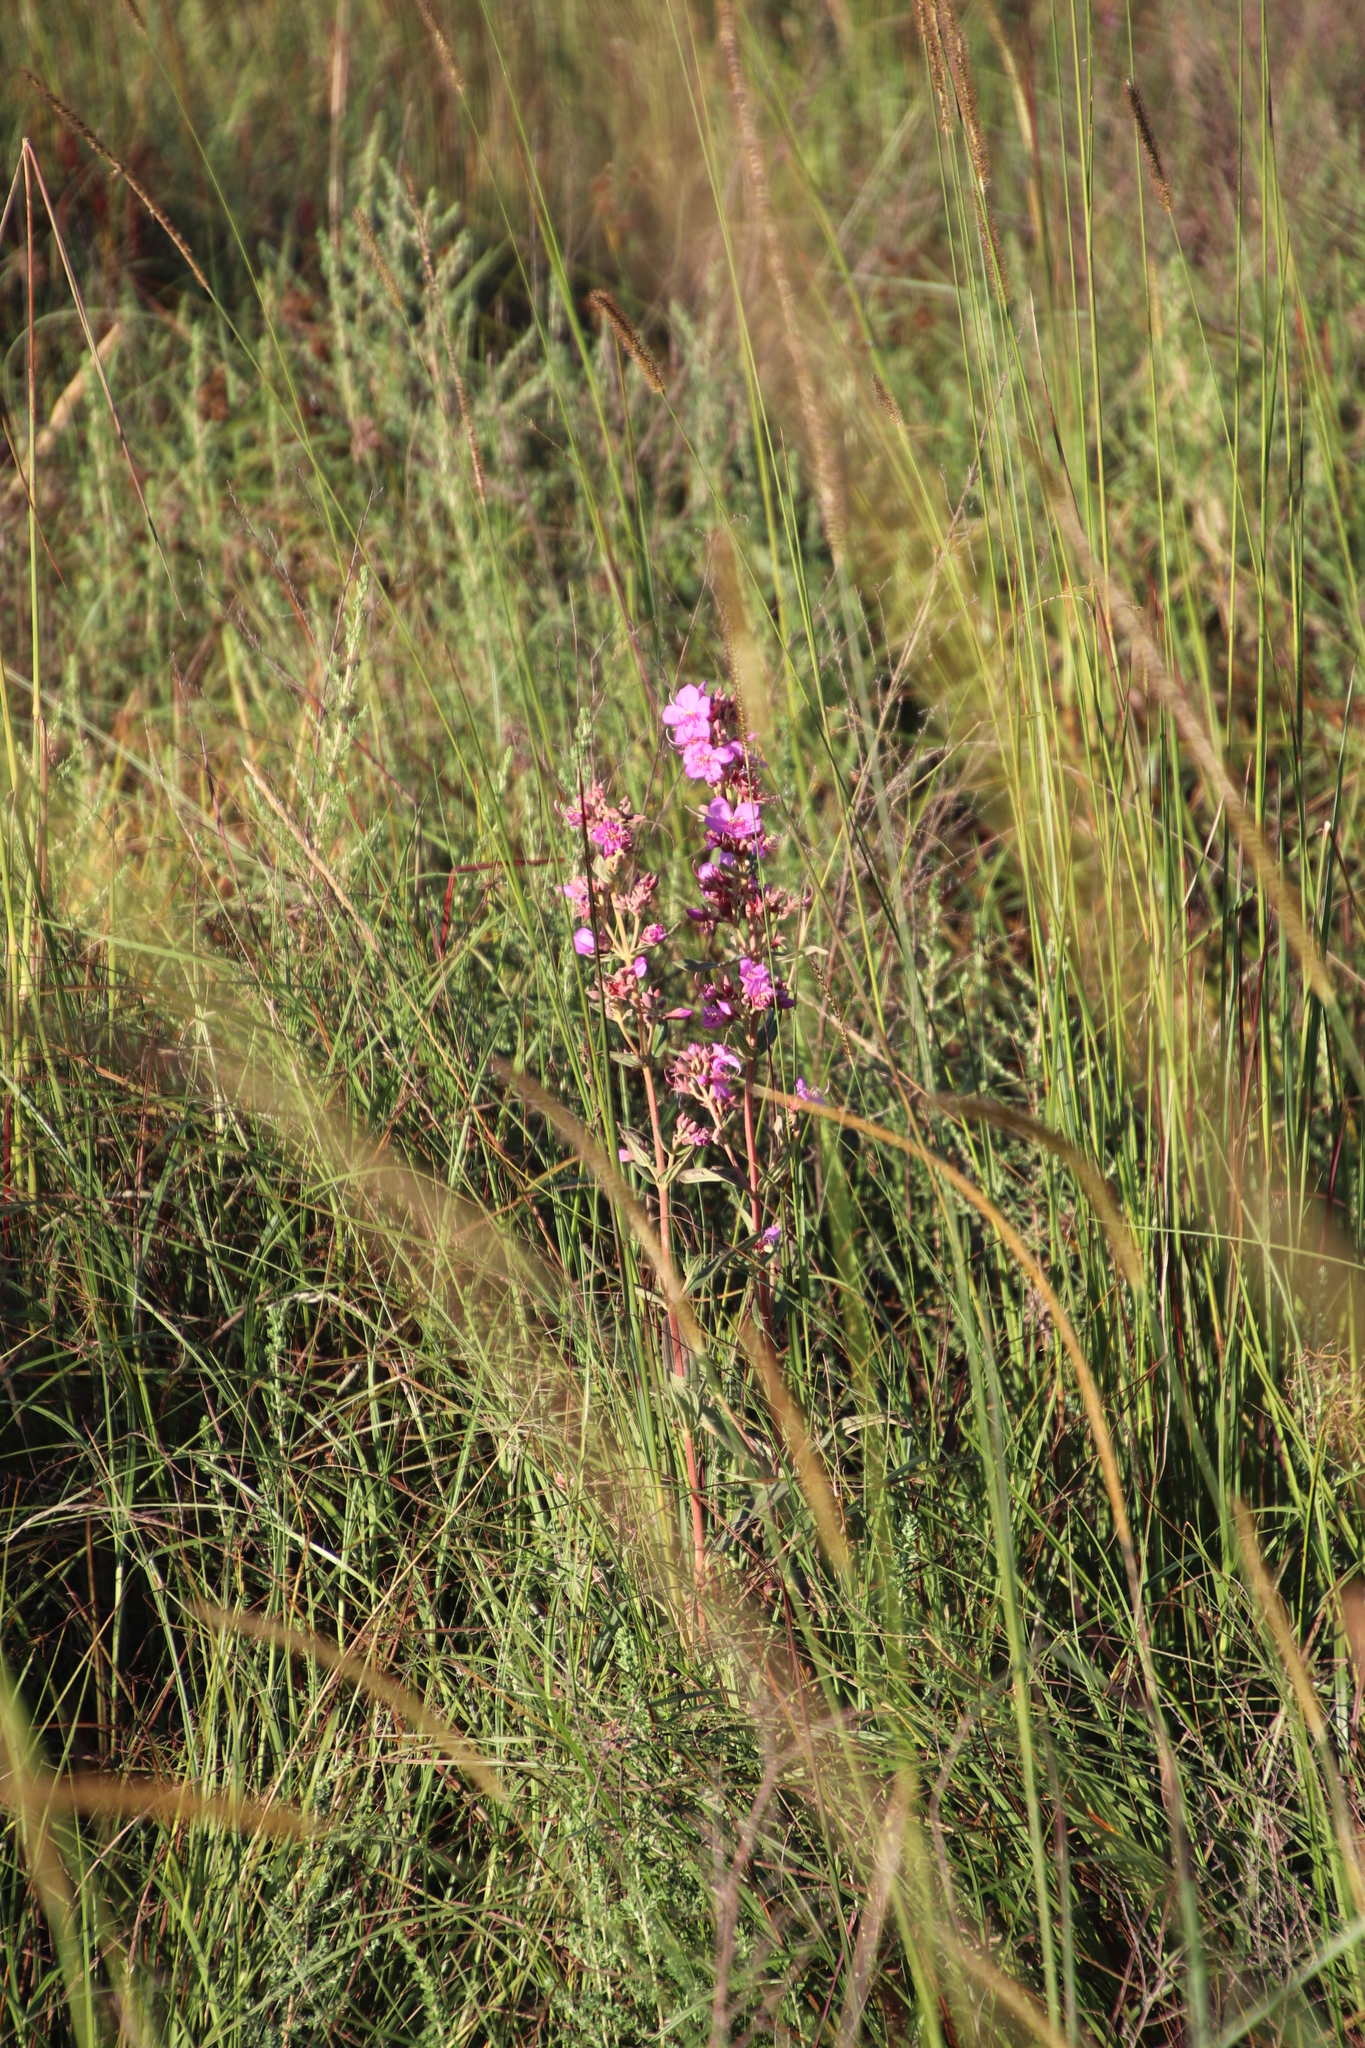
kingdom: Plantae
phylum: Tracheophyta
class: Magnoliopsida
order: Myrtales
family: Melastomataceae
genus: Argyrella
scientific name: Argyrella canescens
